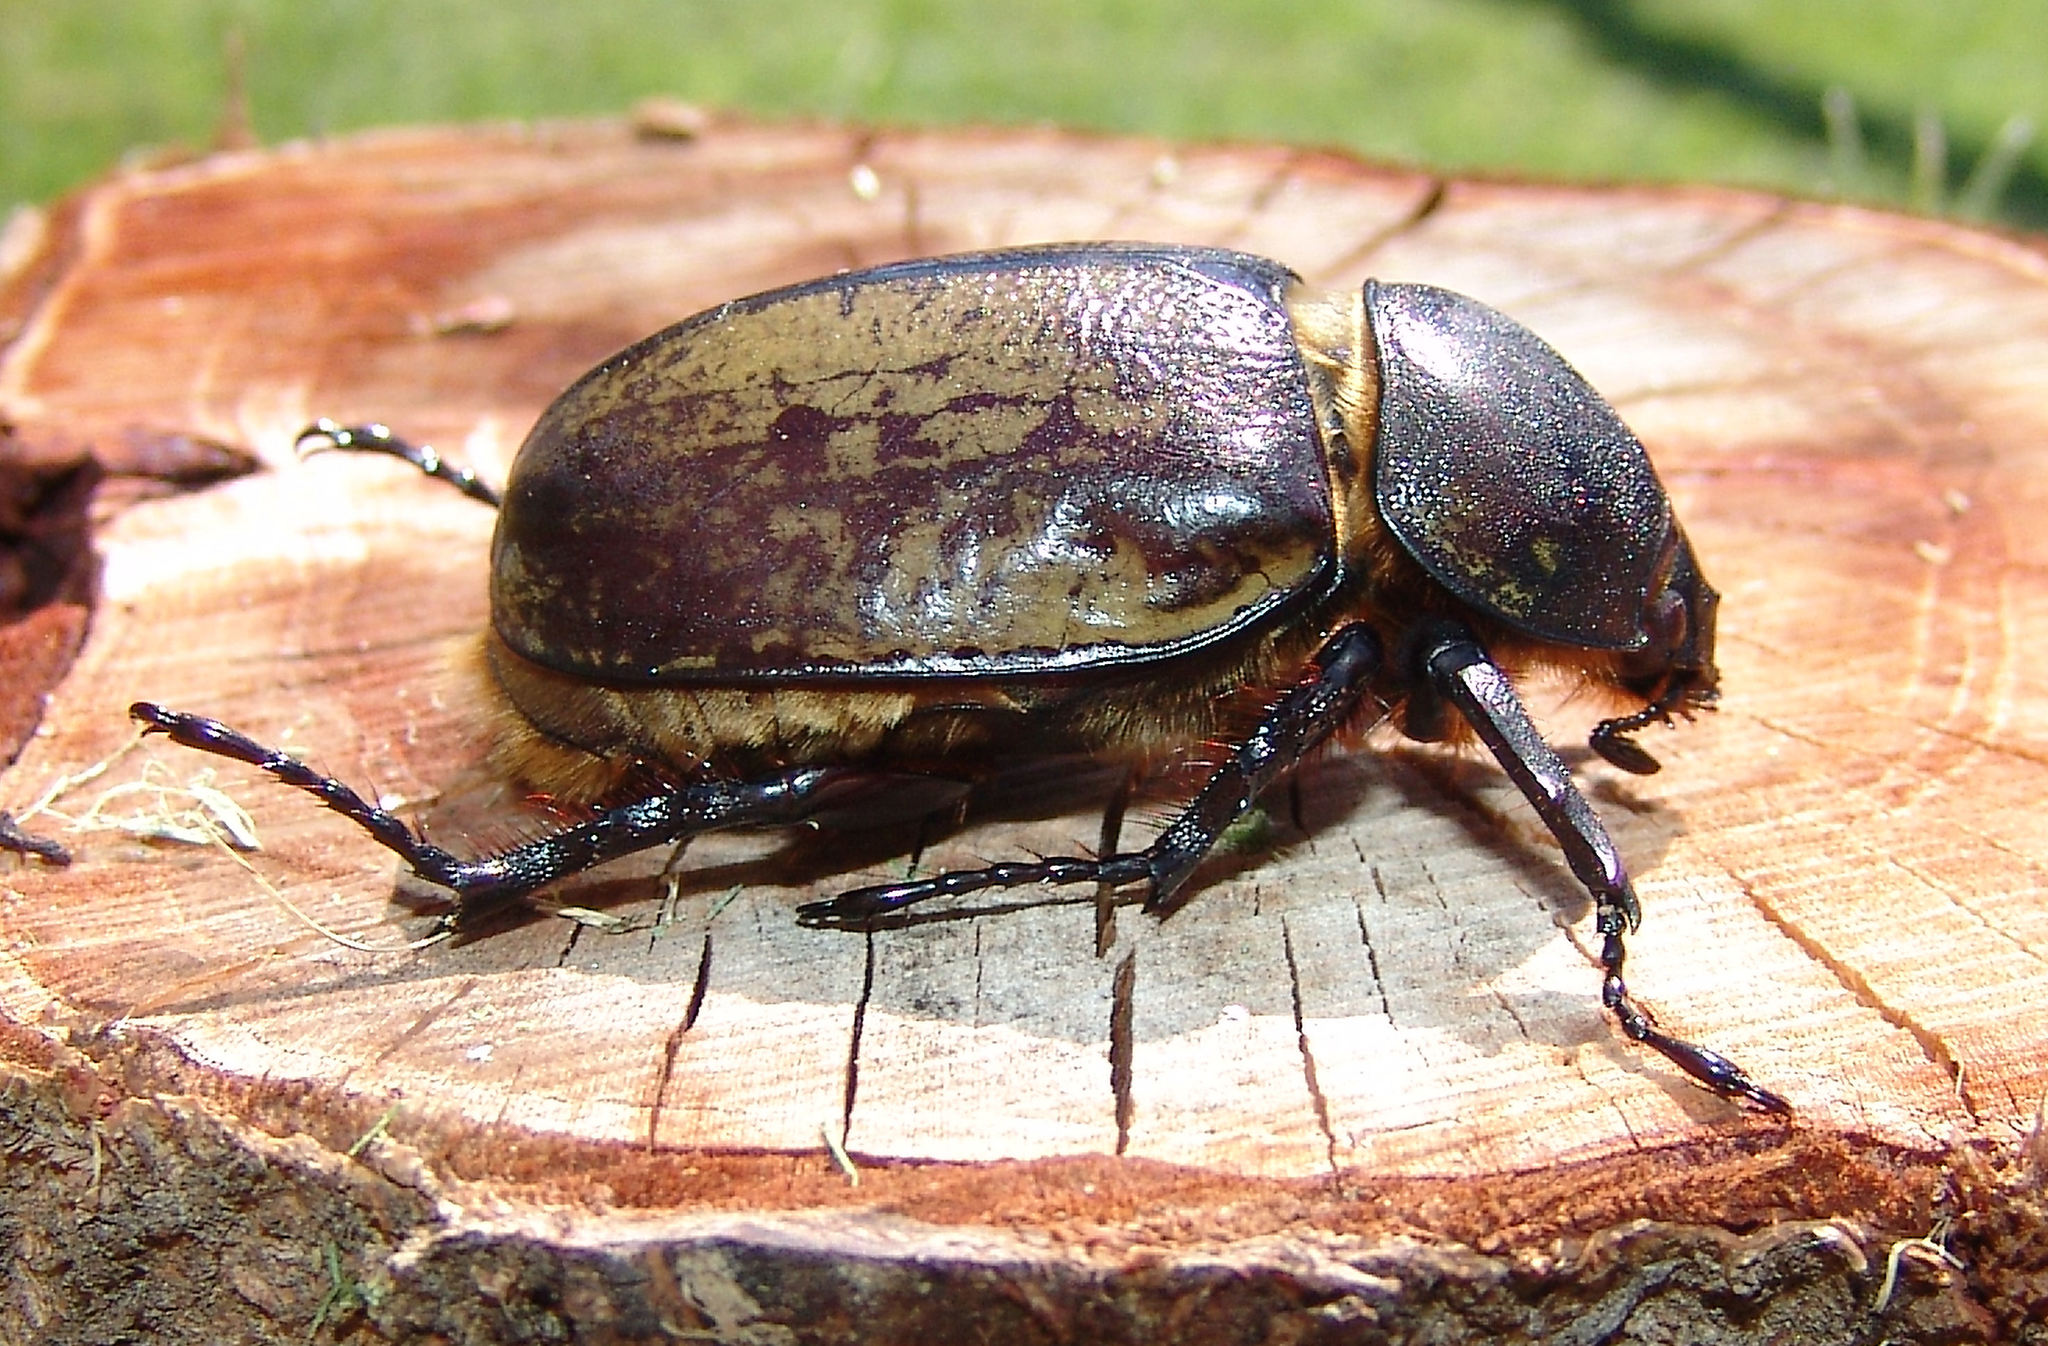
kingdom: Animalia
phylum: Arthropoda
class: Insecta
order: Coleoptera
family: Scarabaeidae
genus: Dynastes
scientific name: Dynastes tityus
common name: Eastern hercules beetle
